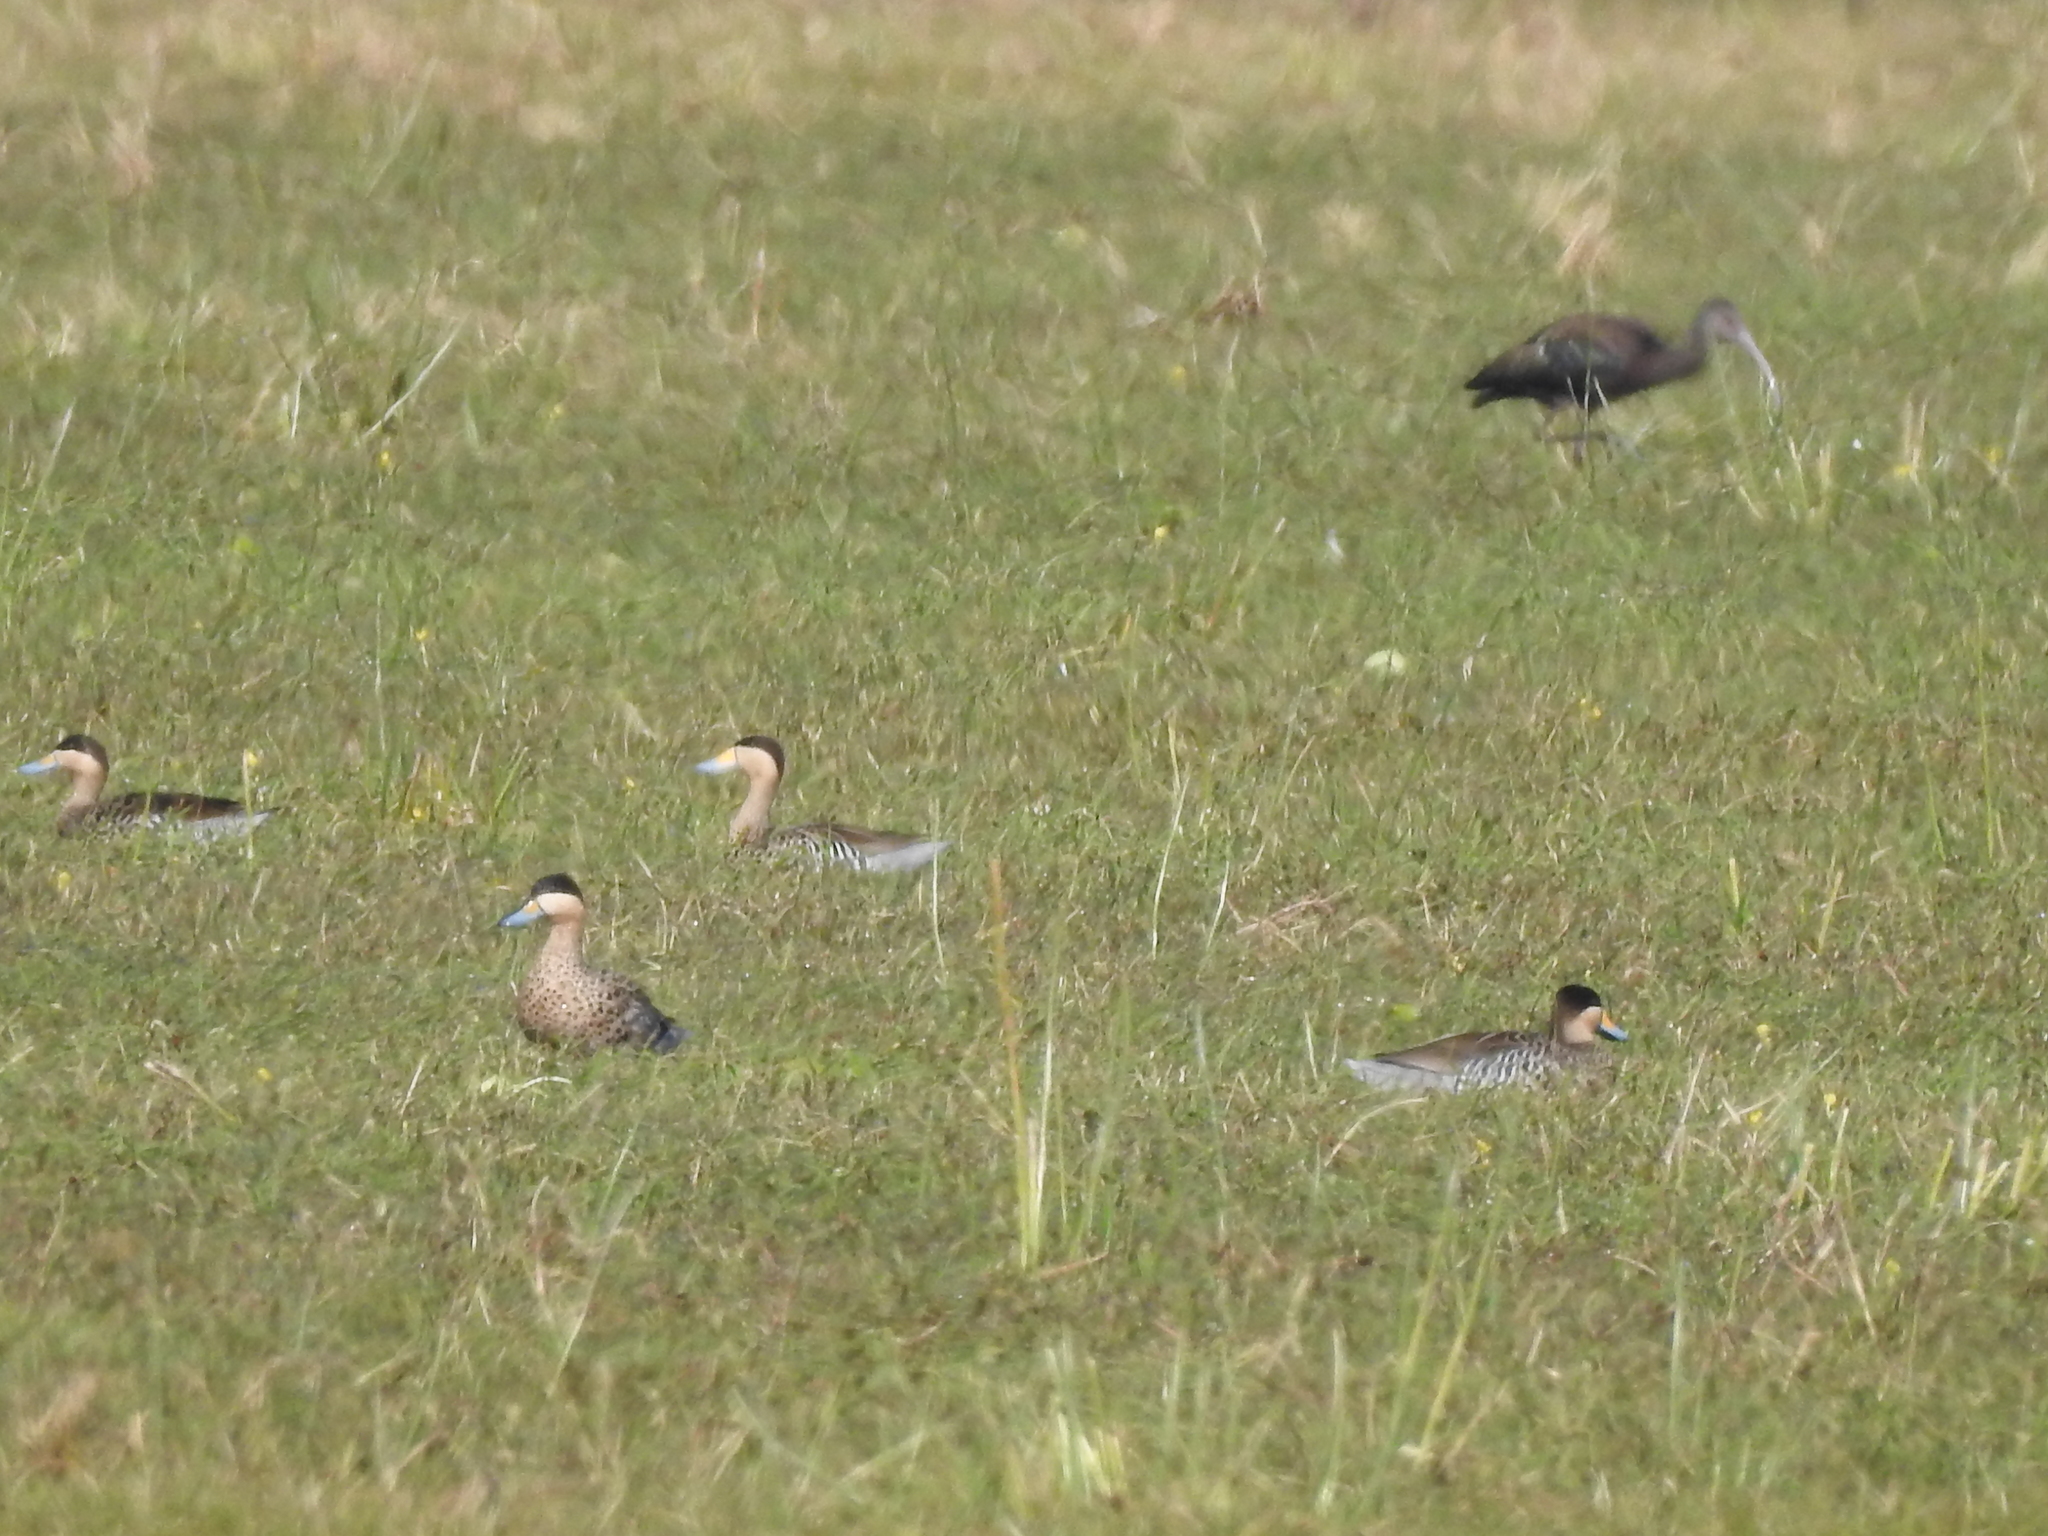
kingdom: Animalia
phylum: Chordata
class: Aves
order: Anseriformes
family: Anatidae
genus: Spatula
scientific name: Spatula versicolor
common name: Silver teal
